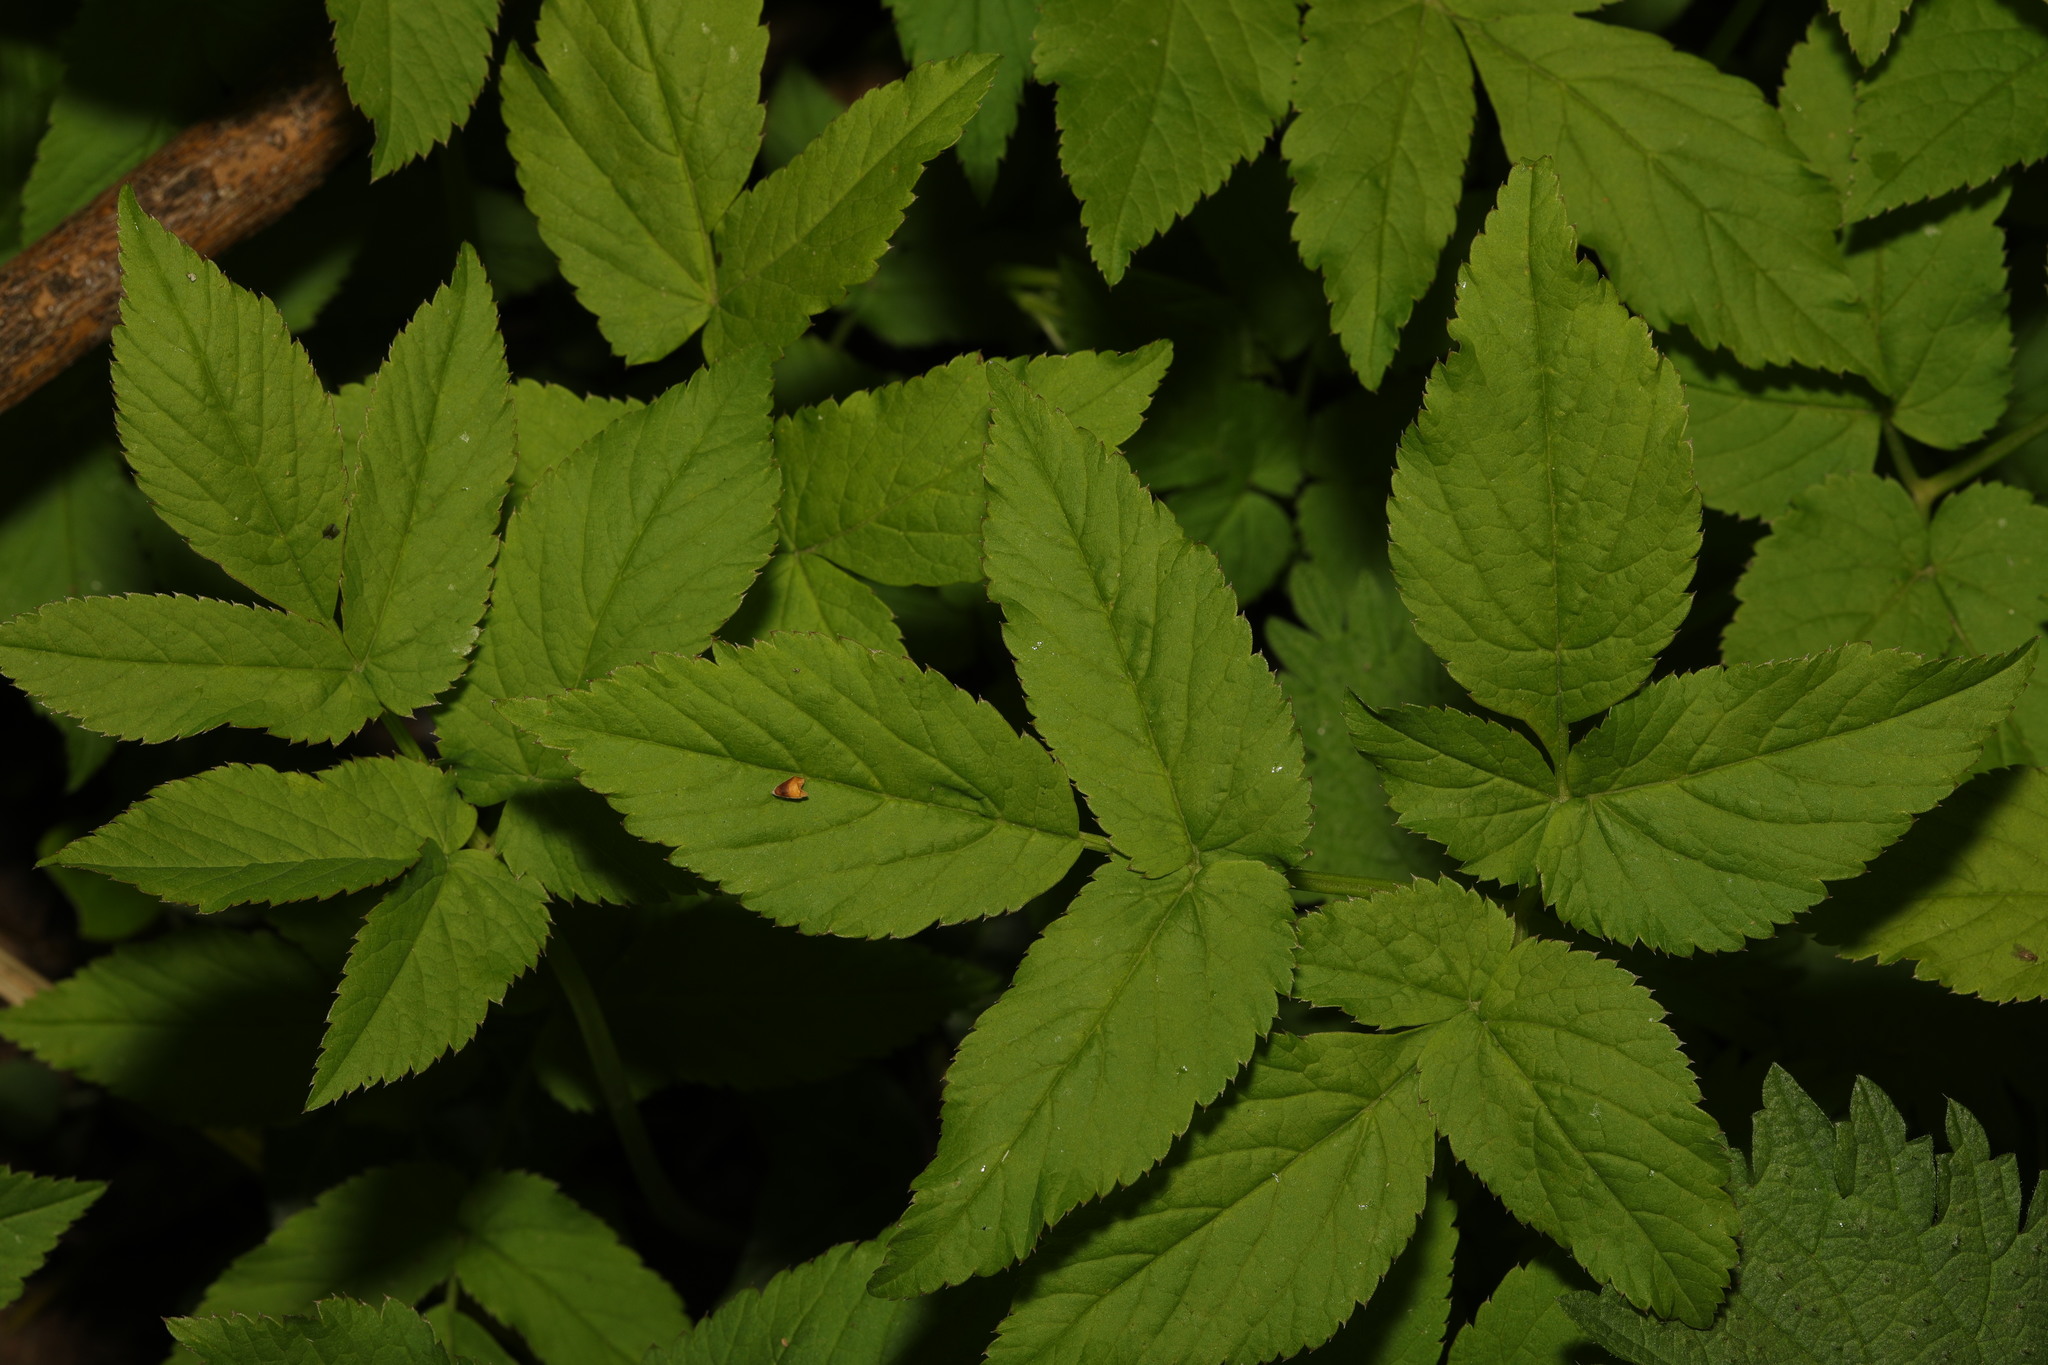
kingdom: Plantae
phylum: Tracheophyta
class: Magnoliopsida
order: Apiales
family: Apiaceae
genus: Aegopodium
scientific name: Aegopodium podagraria
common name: Ground-elder
